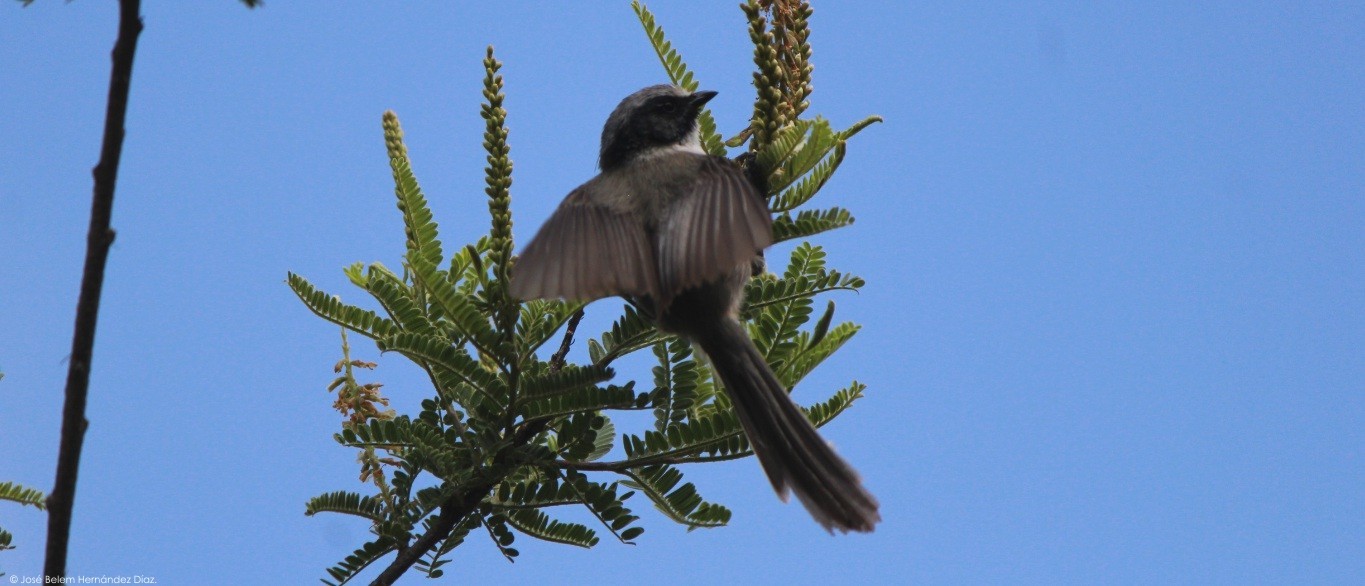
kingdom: Animalia
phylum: Chordata
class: Aves
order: Passeriformes
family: Aegithalidae
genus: Psaltriparus
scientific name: Psaltriparus minimus
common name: American bushtit
